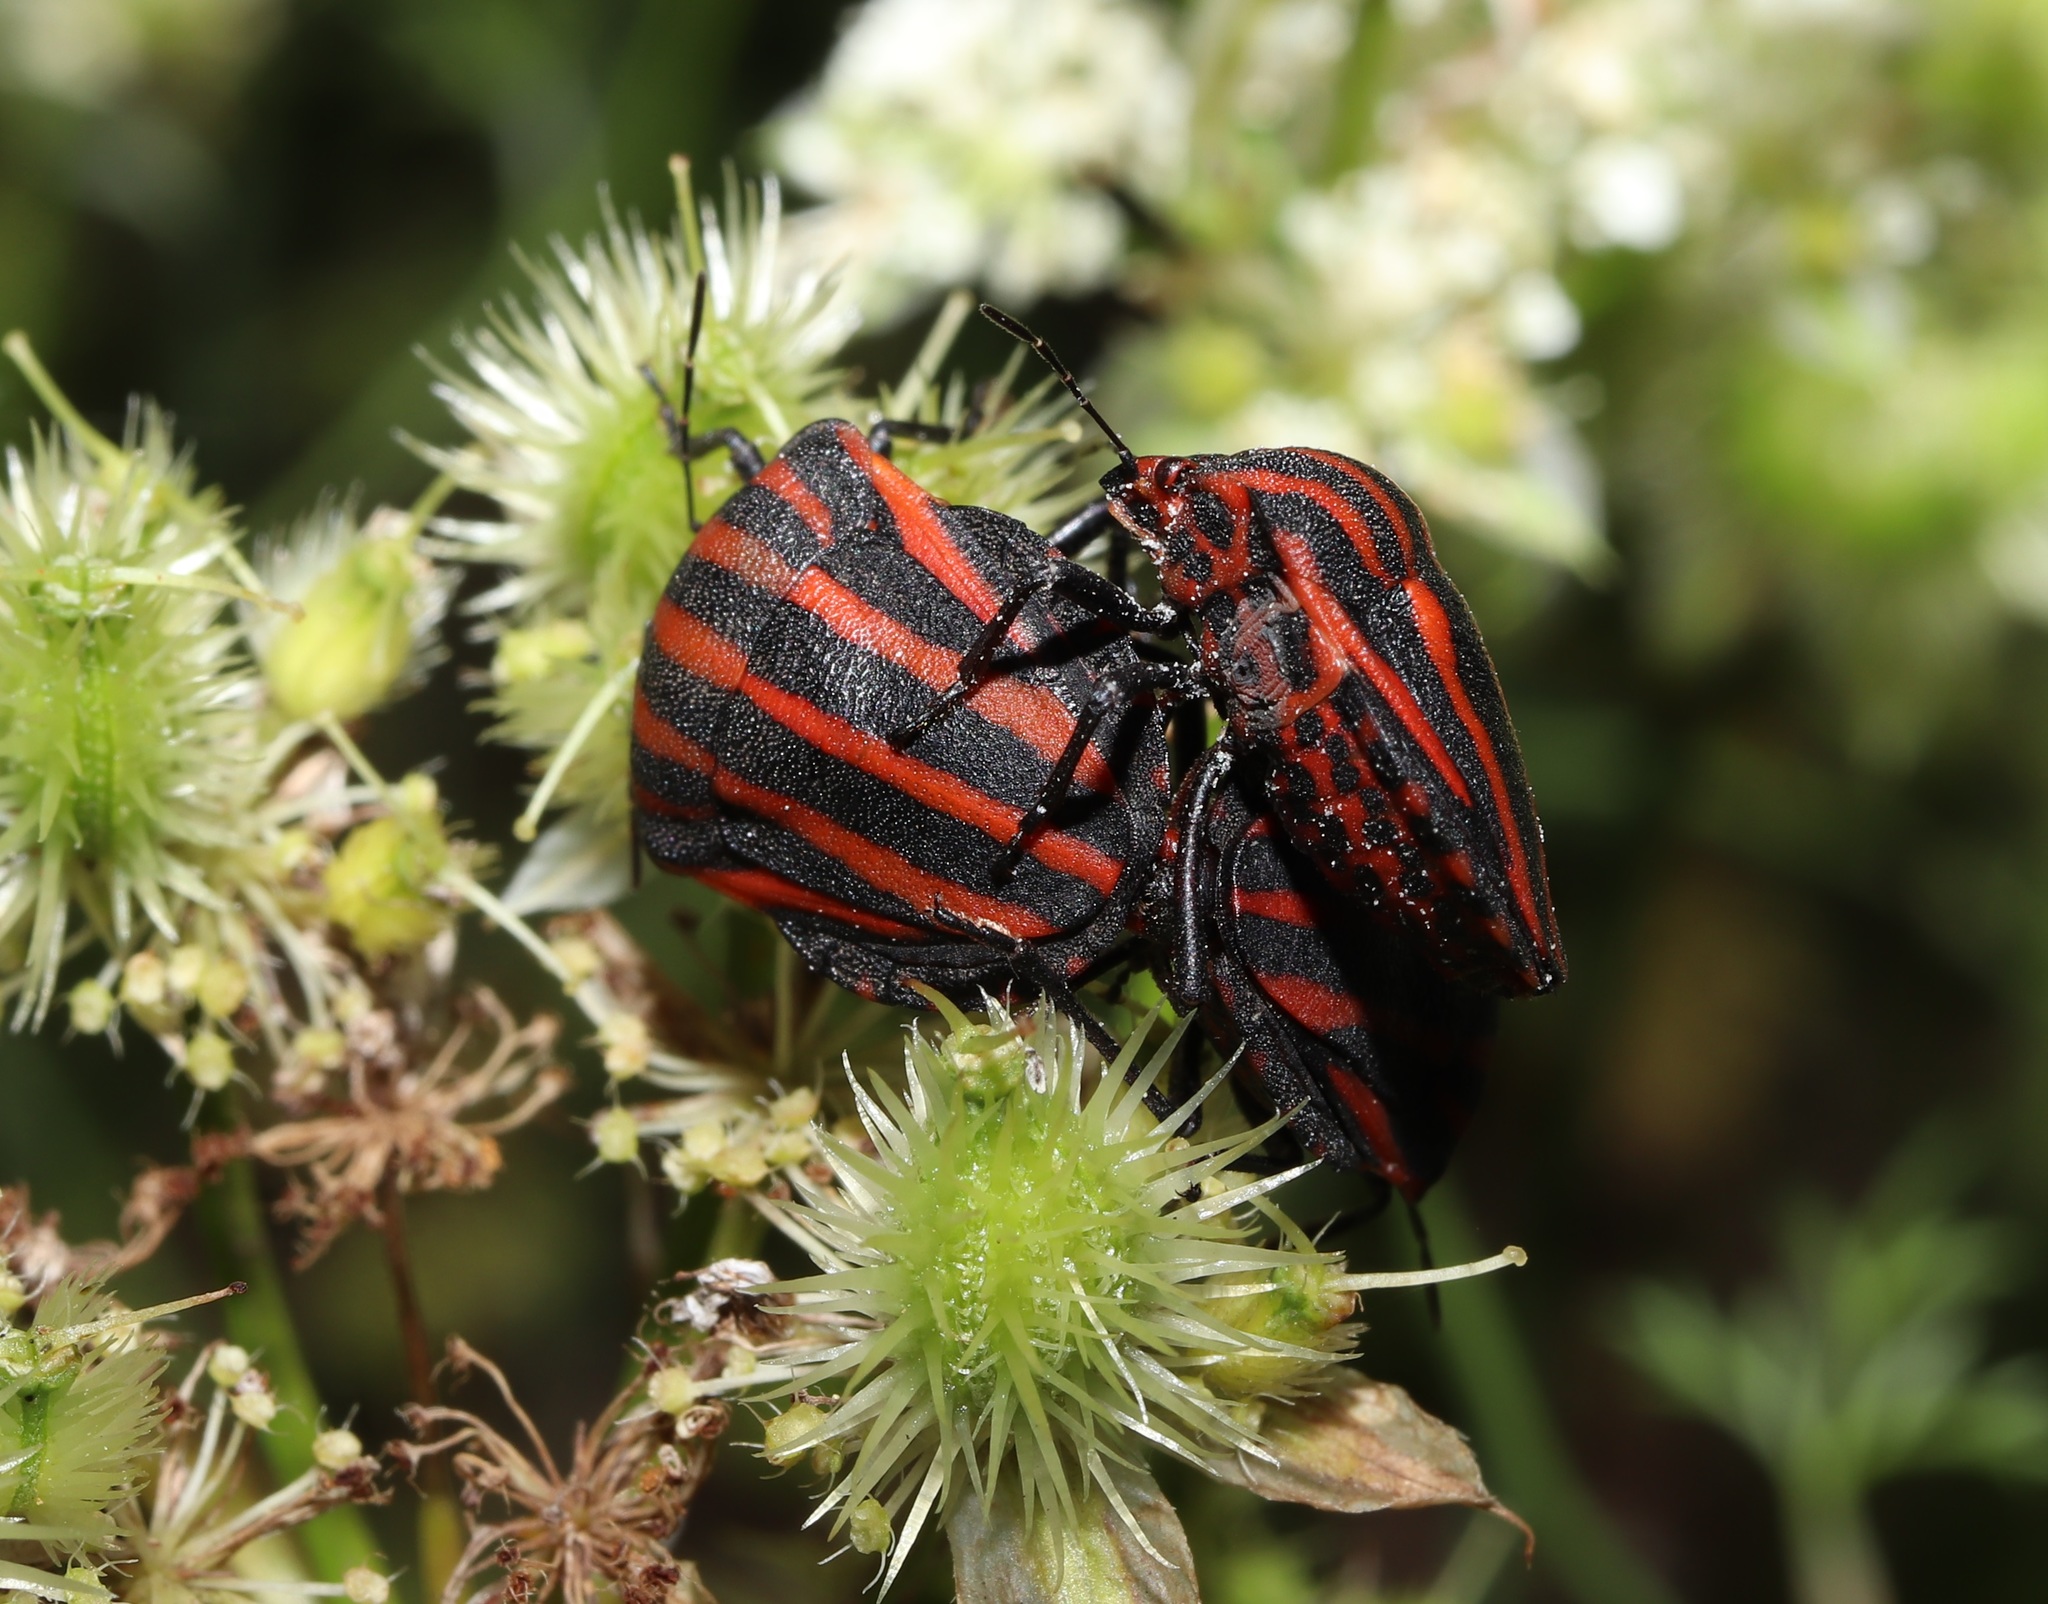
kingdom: Animalia
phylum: Arthropoda
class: Insecta
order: Hemiptera
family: Pentatomidae
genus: Graphosoma
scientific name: Graphosoma rubrolineatum
